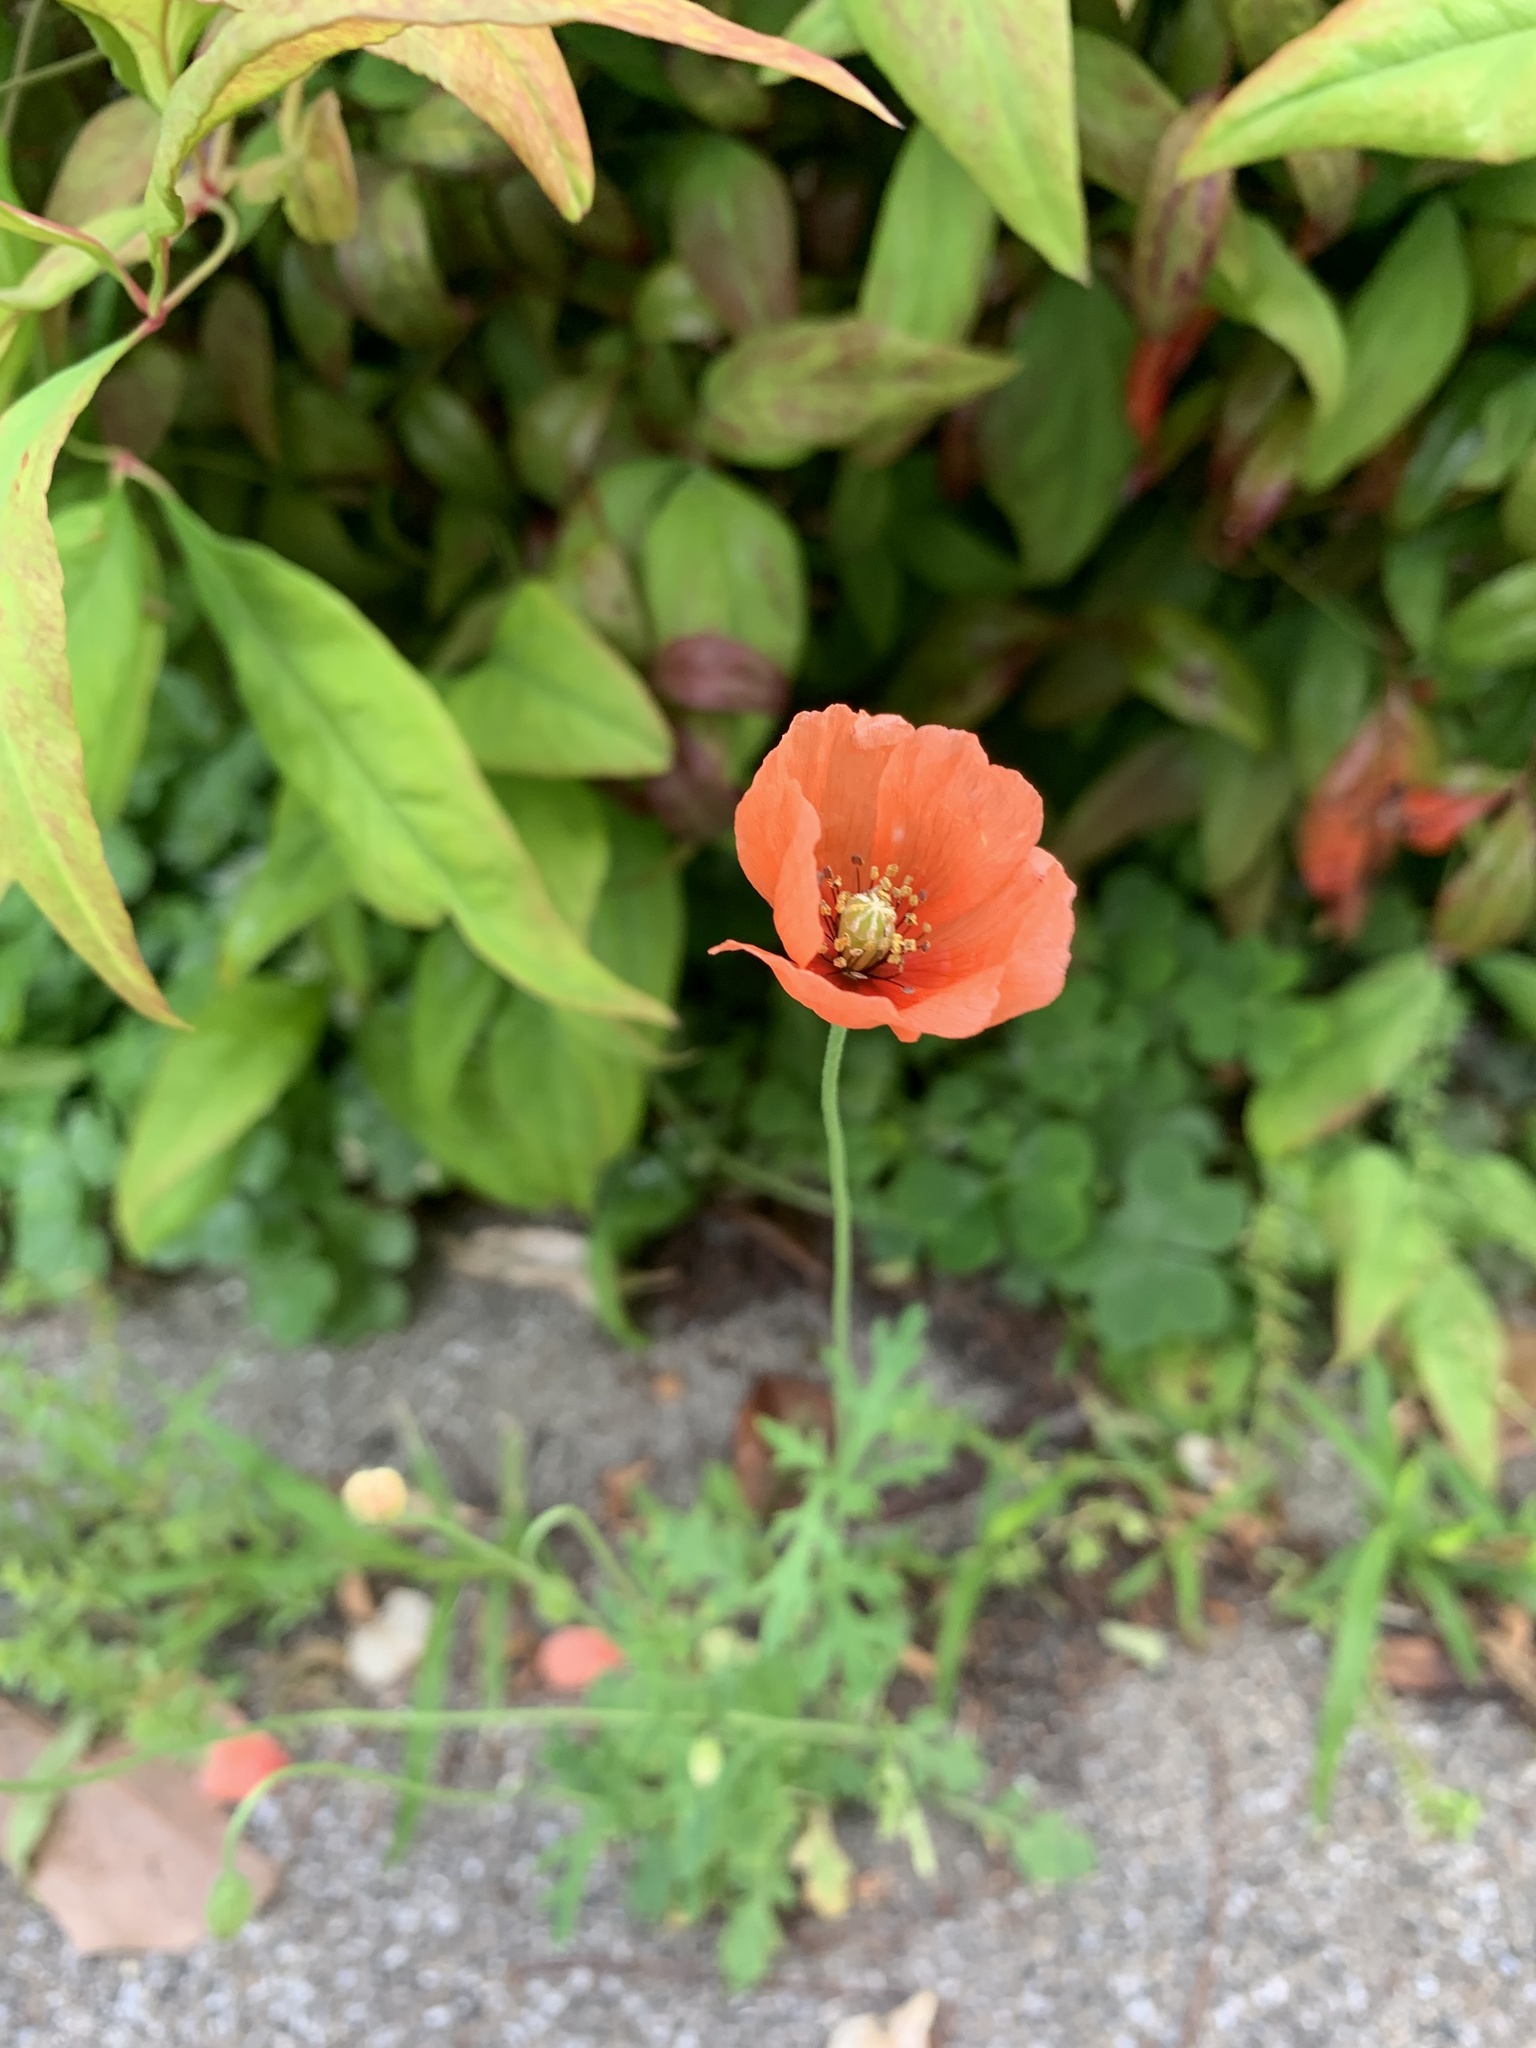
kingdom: Plantae
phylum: Tracheophyta
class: Magnoliopsida
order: Ranunculales
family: Papaveraceae
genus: Papaver
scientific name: Papaver dubium
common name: Long-headed poppy
